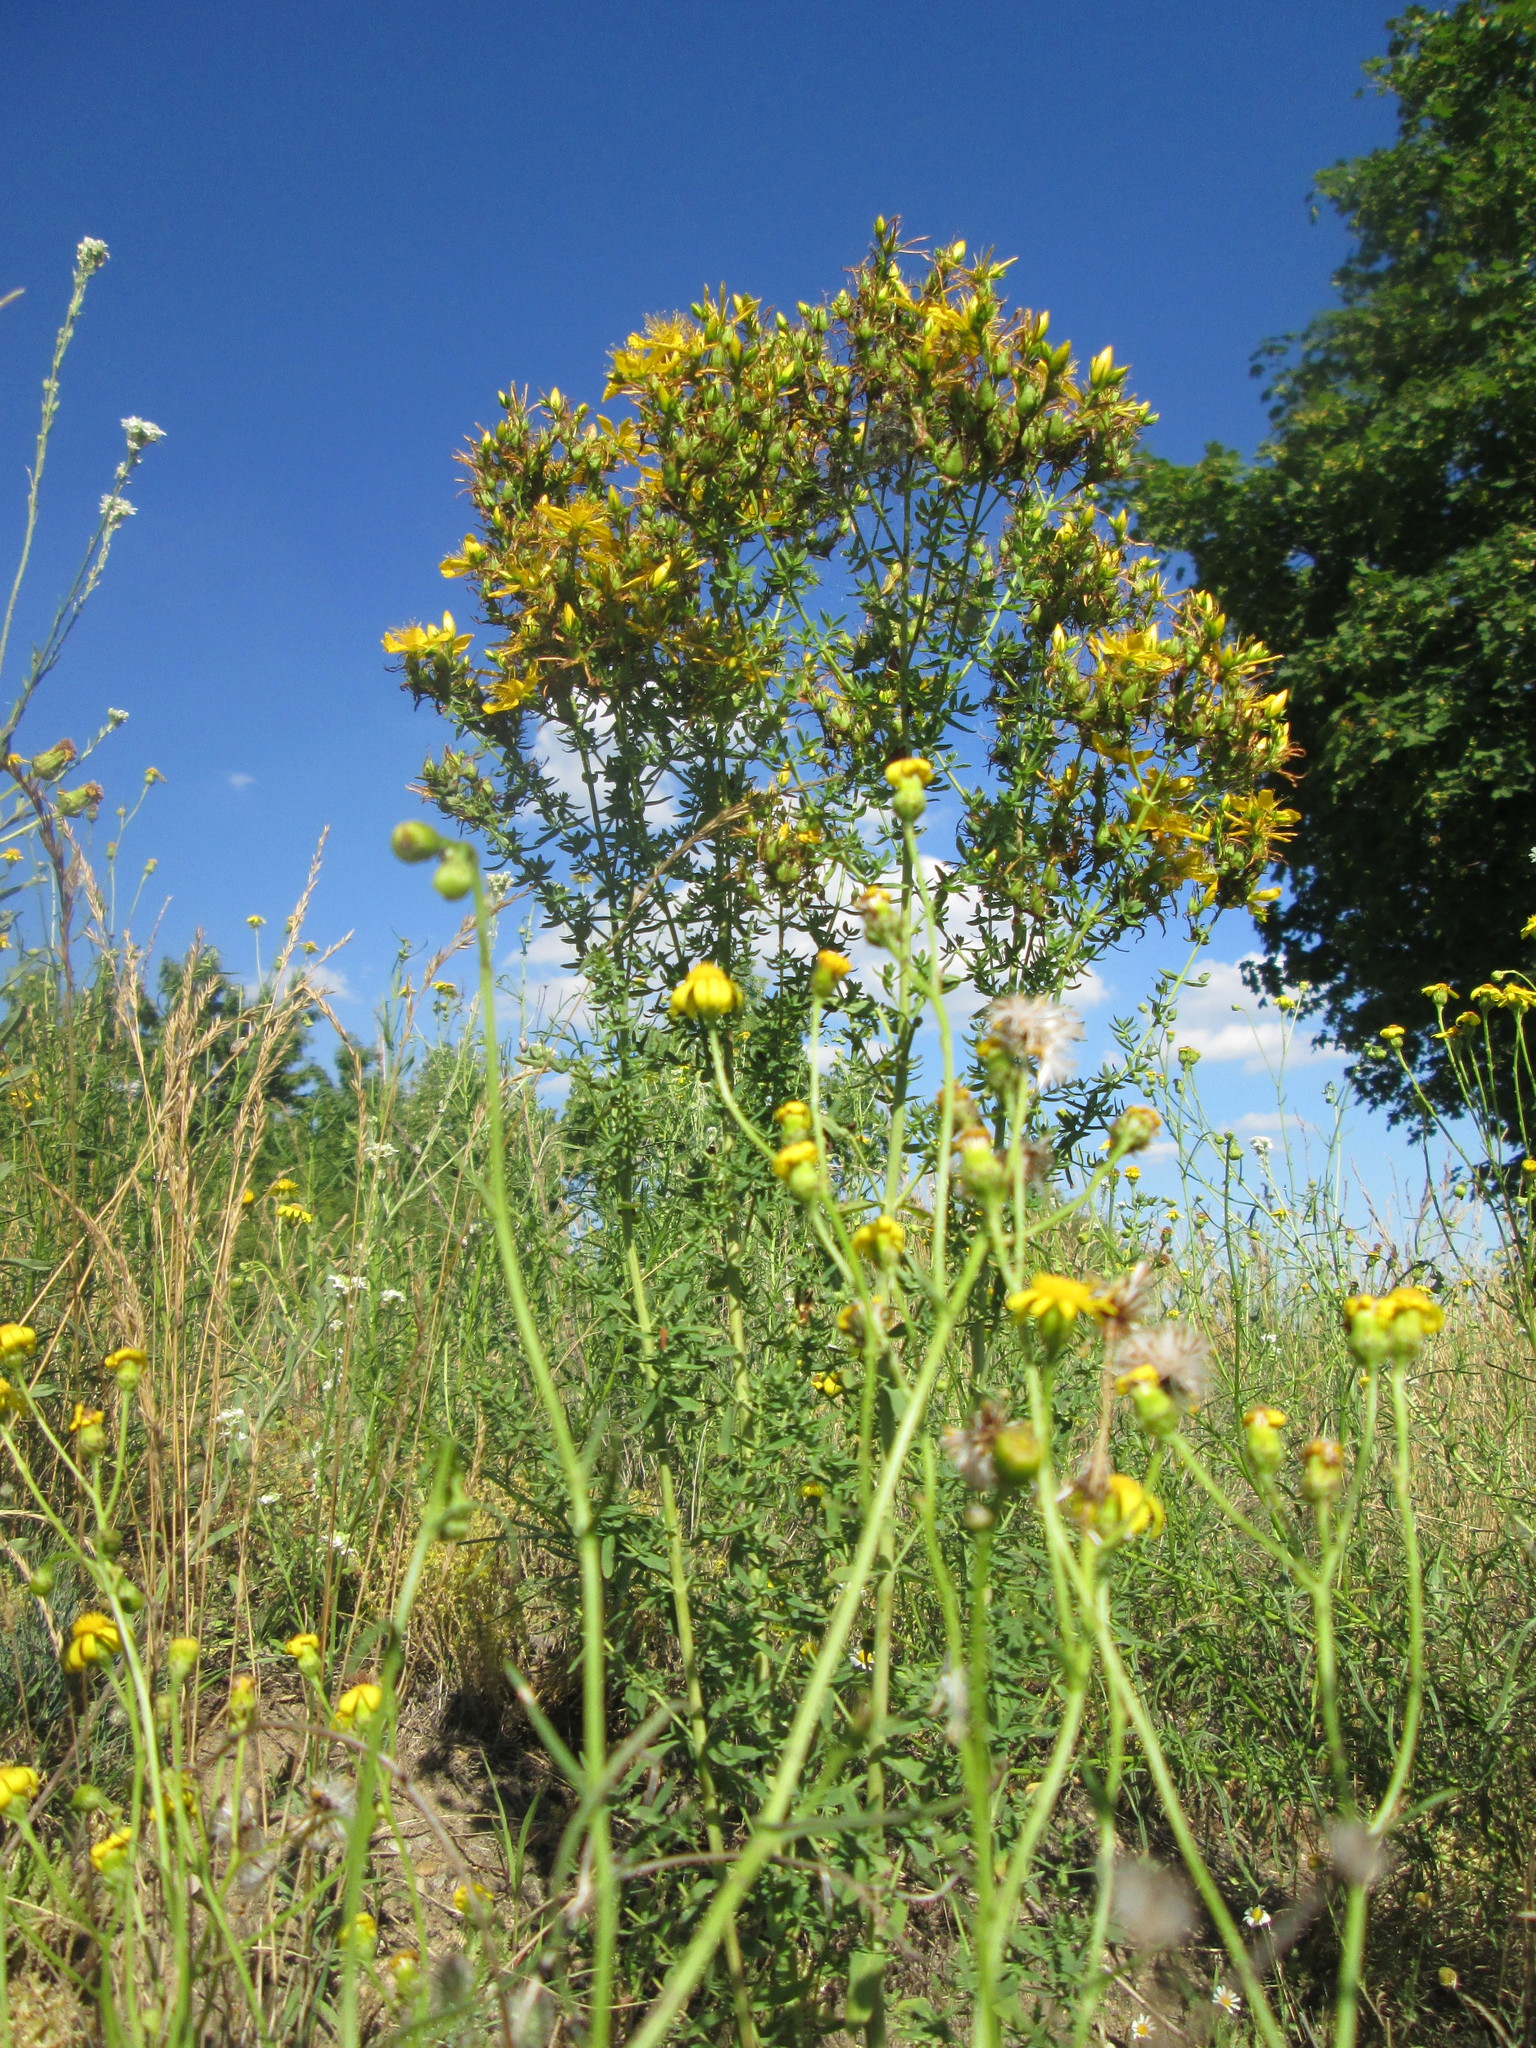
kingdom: Plantae
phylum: Tracheophyta
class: Magnoliopsida
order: Malpighiales
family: Hypericaceae
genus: Hypericum
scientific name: Hypericum perforatum
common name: Common st. johnswort
